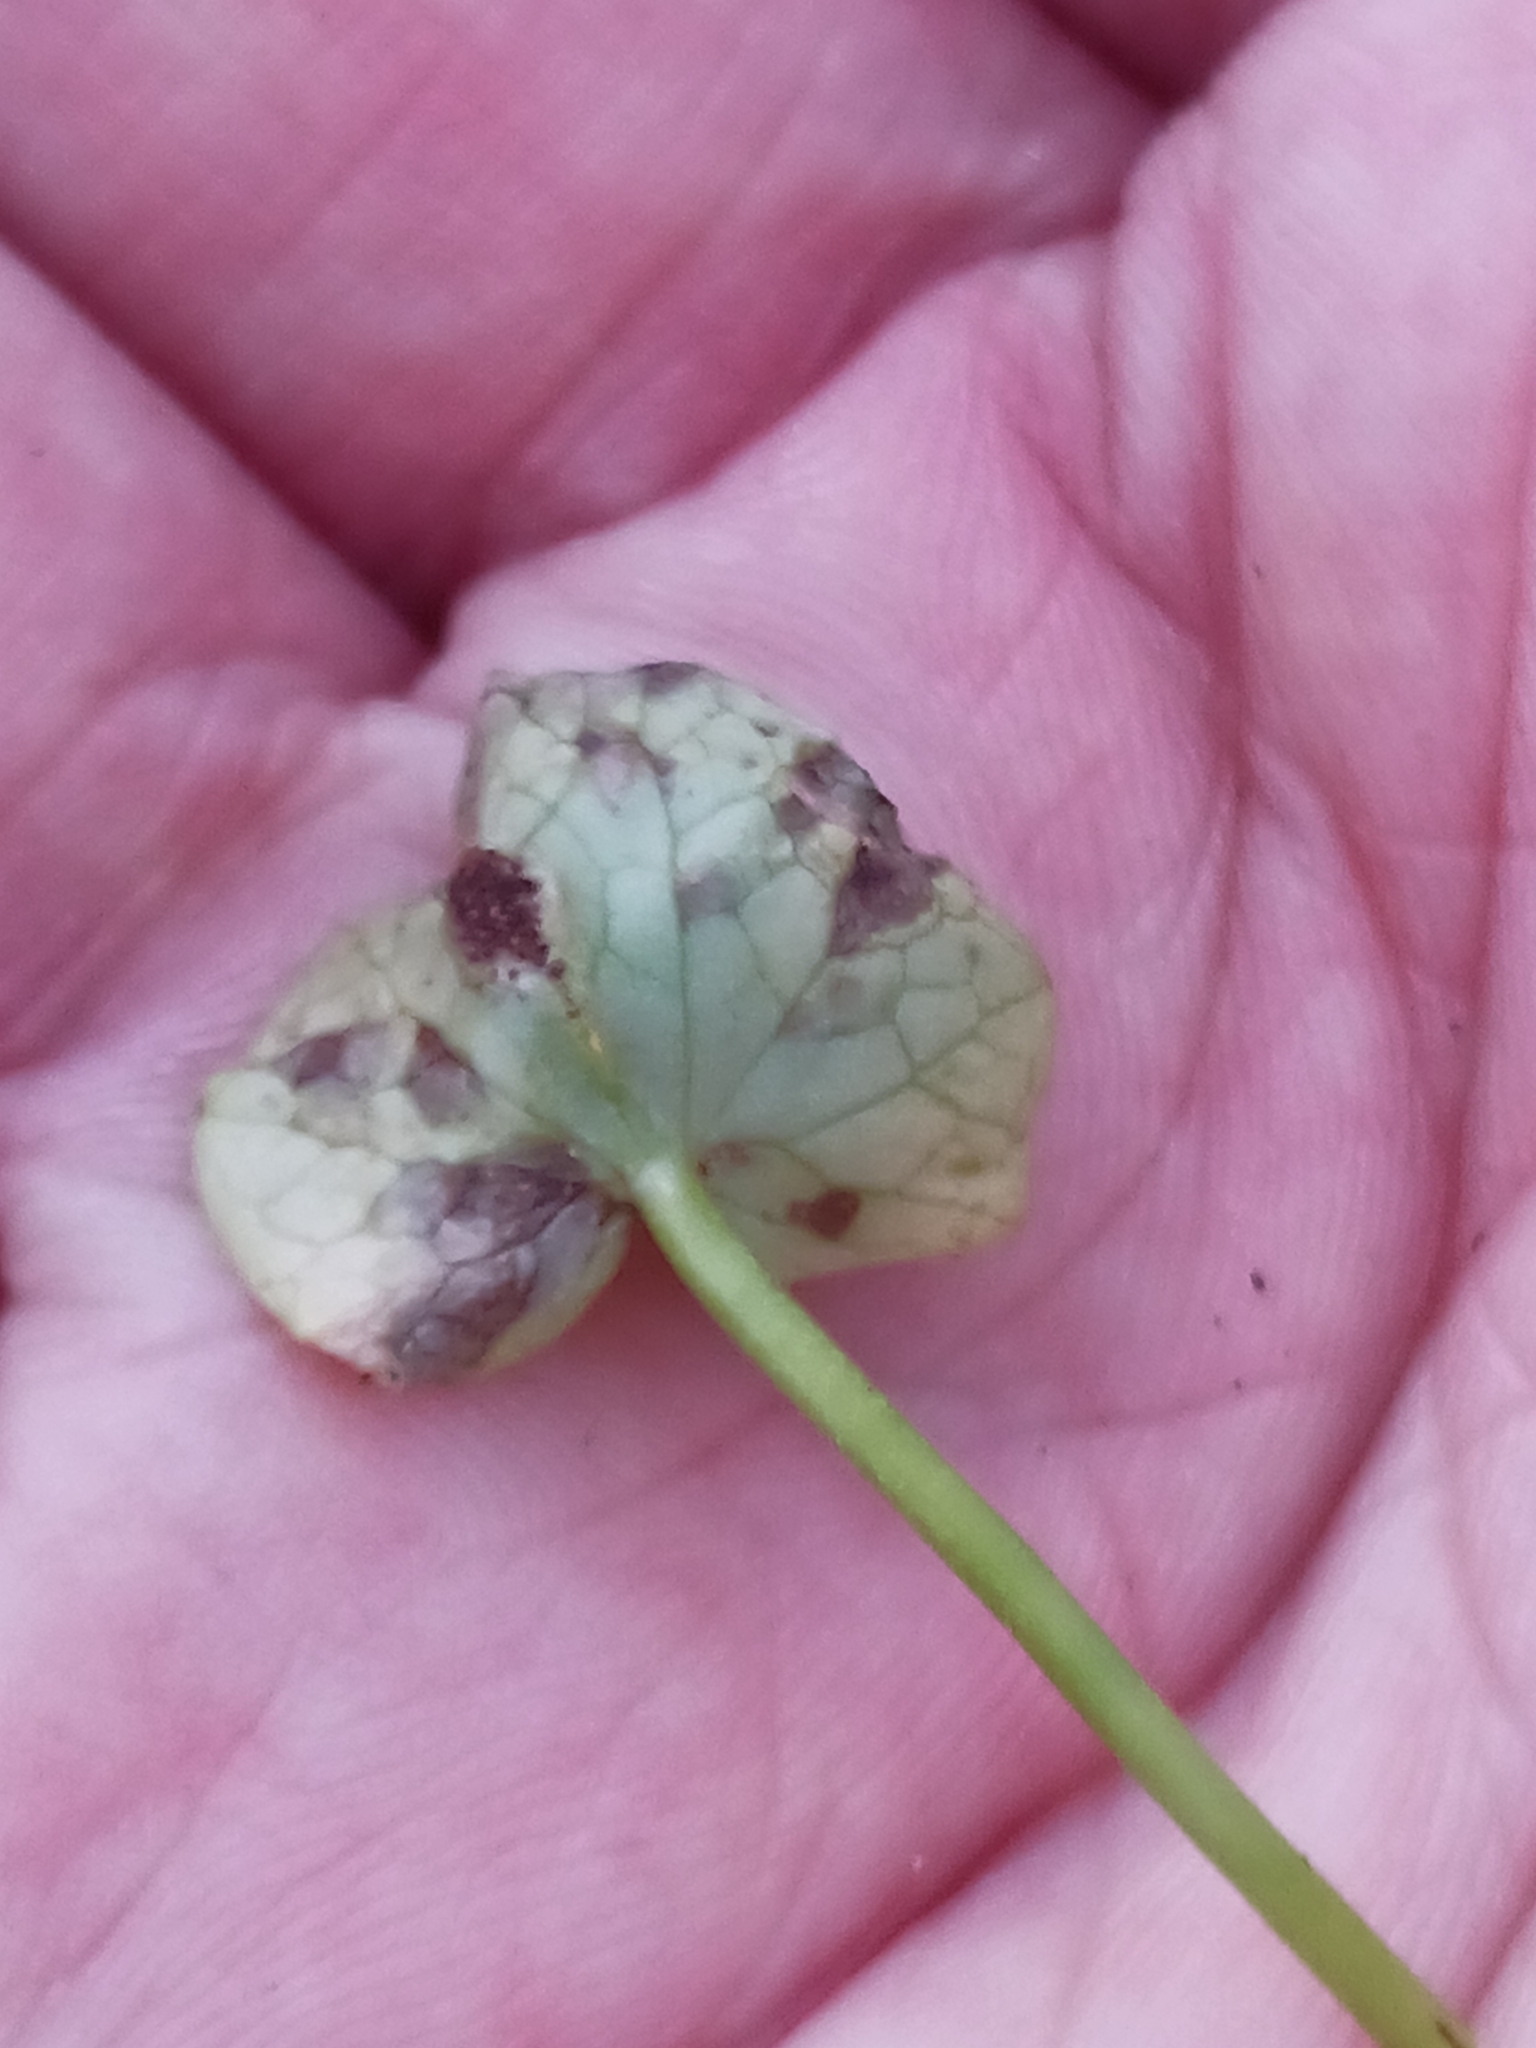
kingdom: Fungi
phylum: Basidiomycota
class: Pucciniomycetes
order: Pucciniales
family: Pucciniaceae
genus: Uromyces
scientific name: Uromyces ficariae
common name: Bitter chocolate rust
